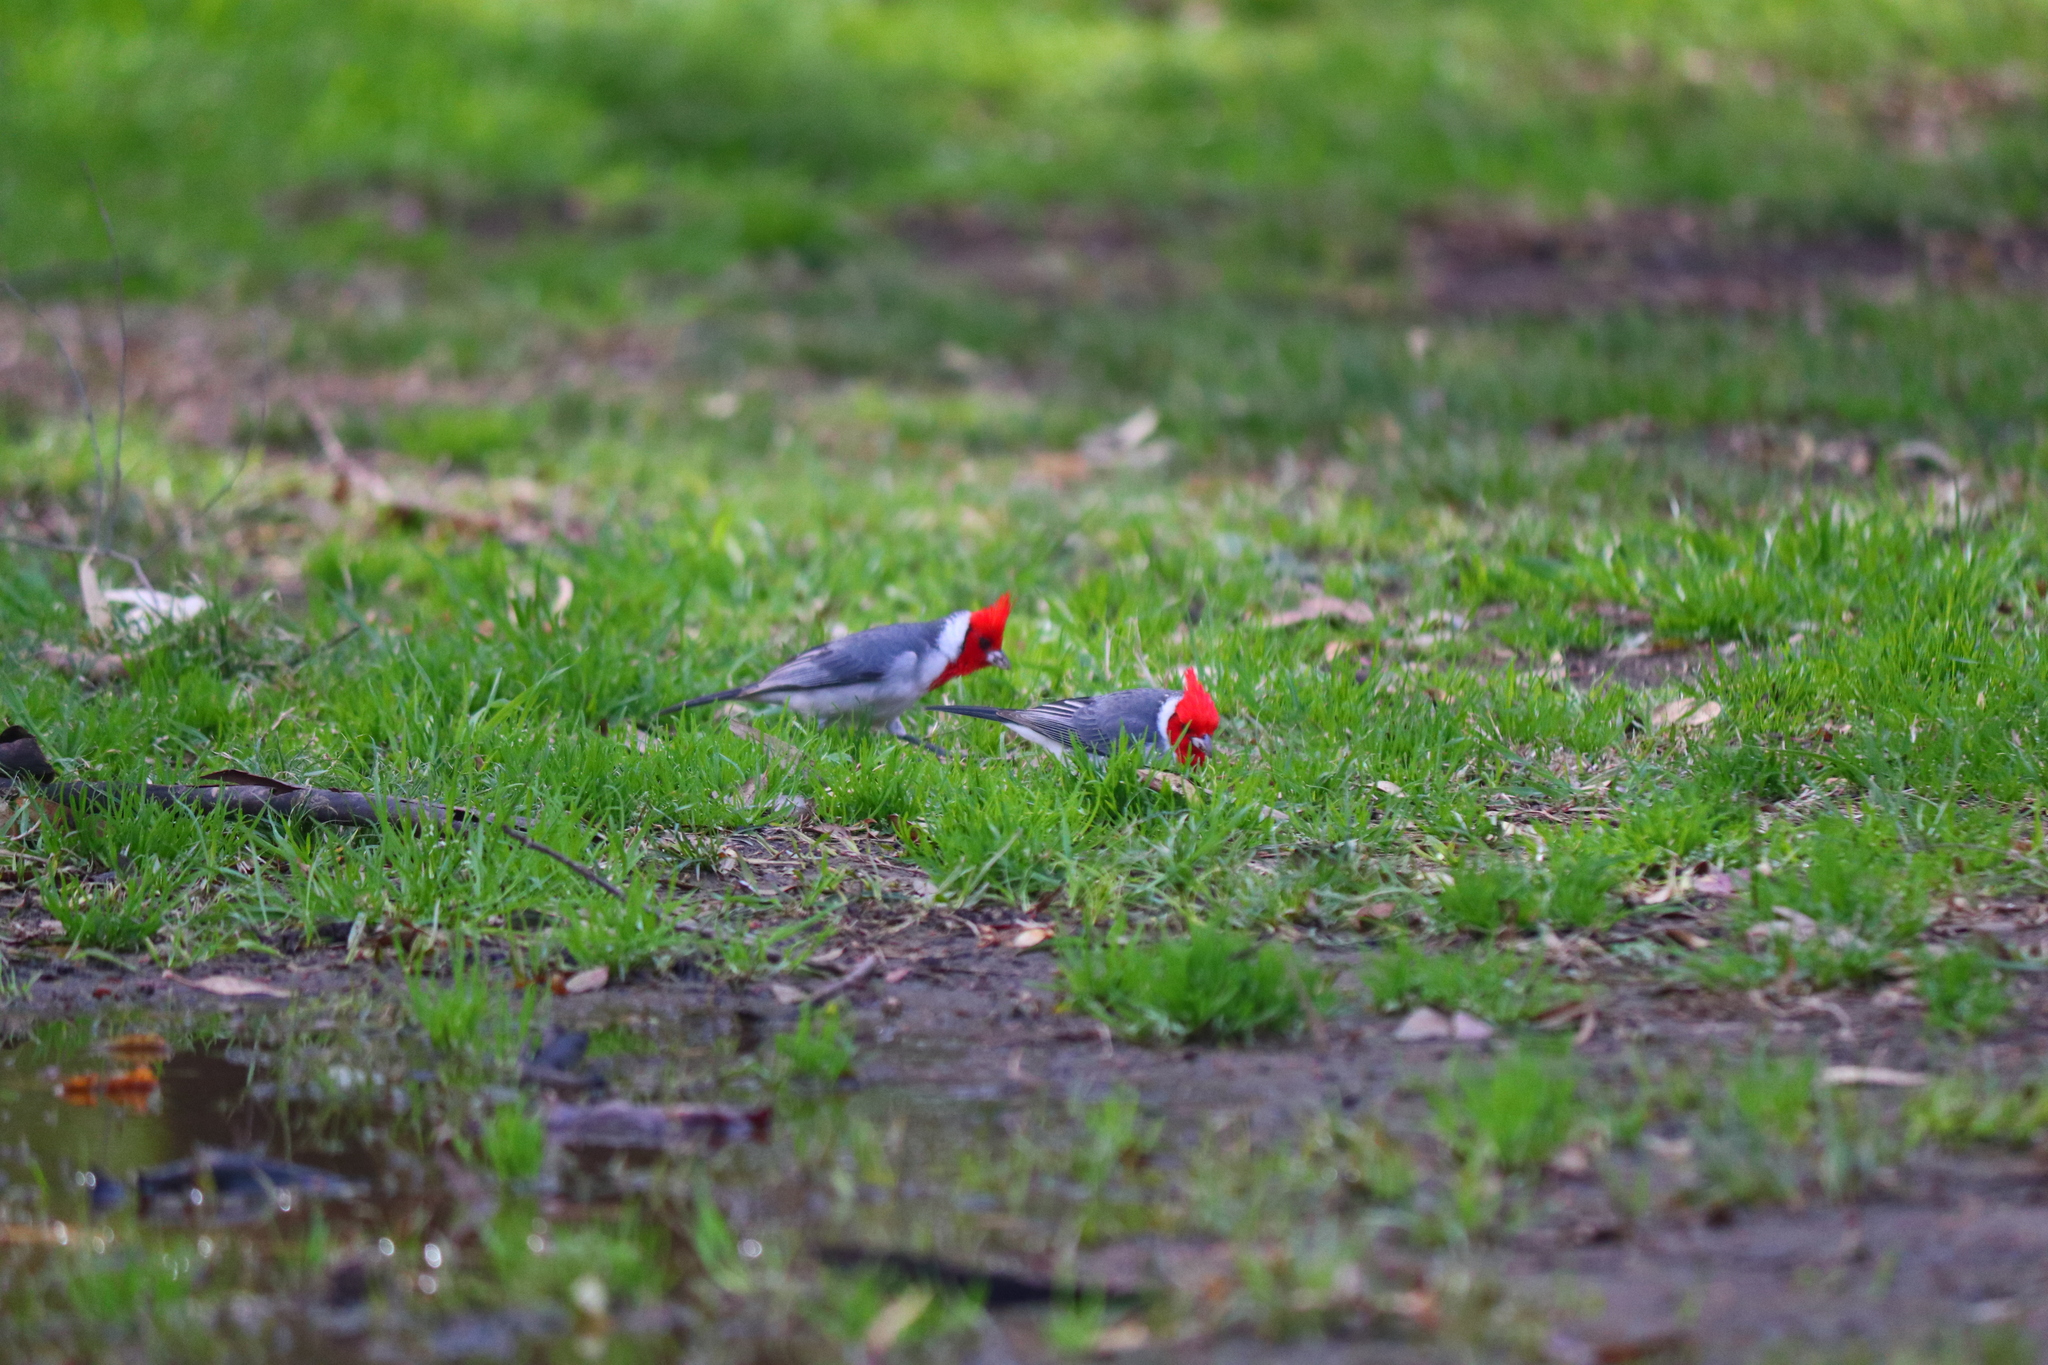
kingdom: Animalia
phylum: Chordata
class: Aves
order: Passeriformes
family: Thraupidae
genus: Paroaria
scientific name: Paroaria coronata
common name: Red-crested cardinal
